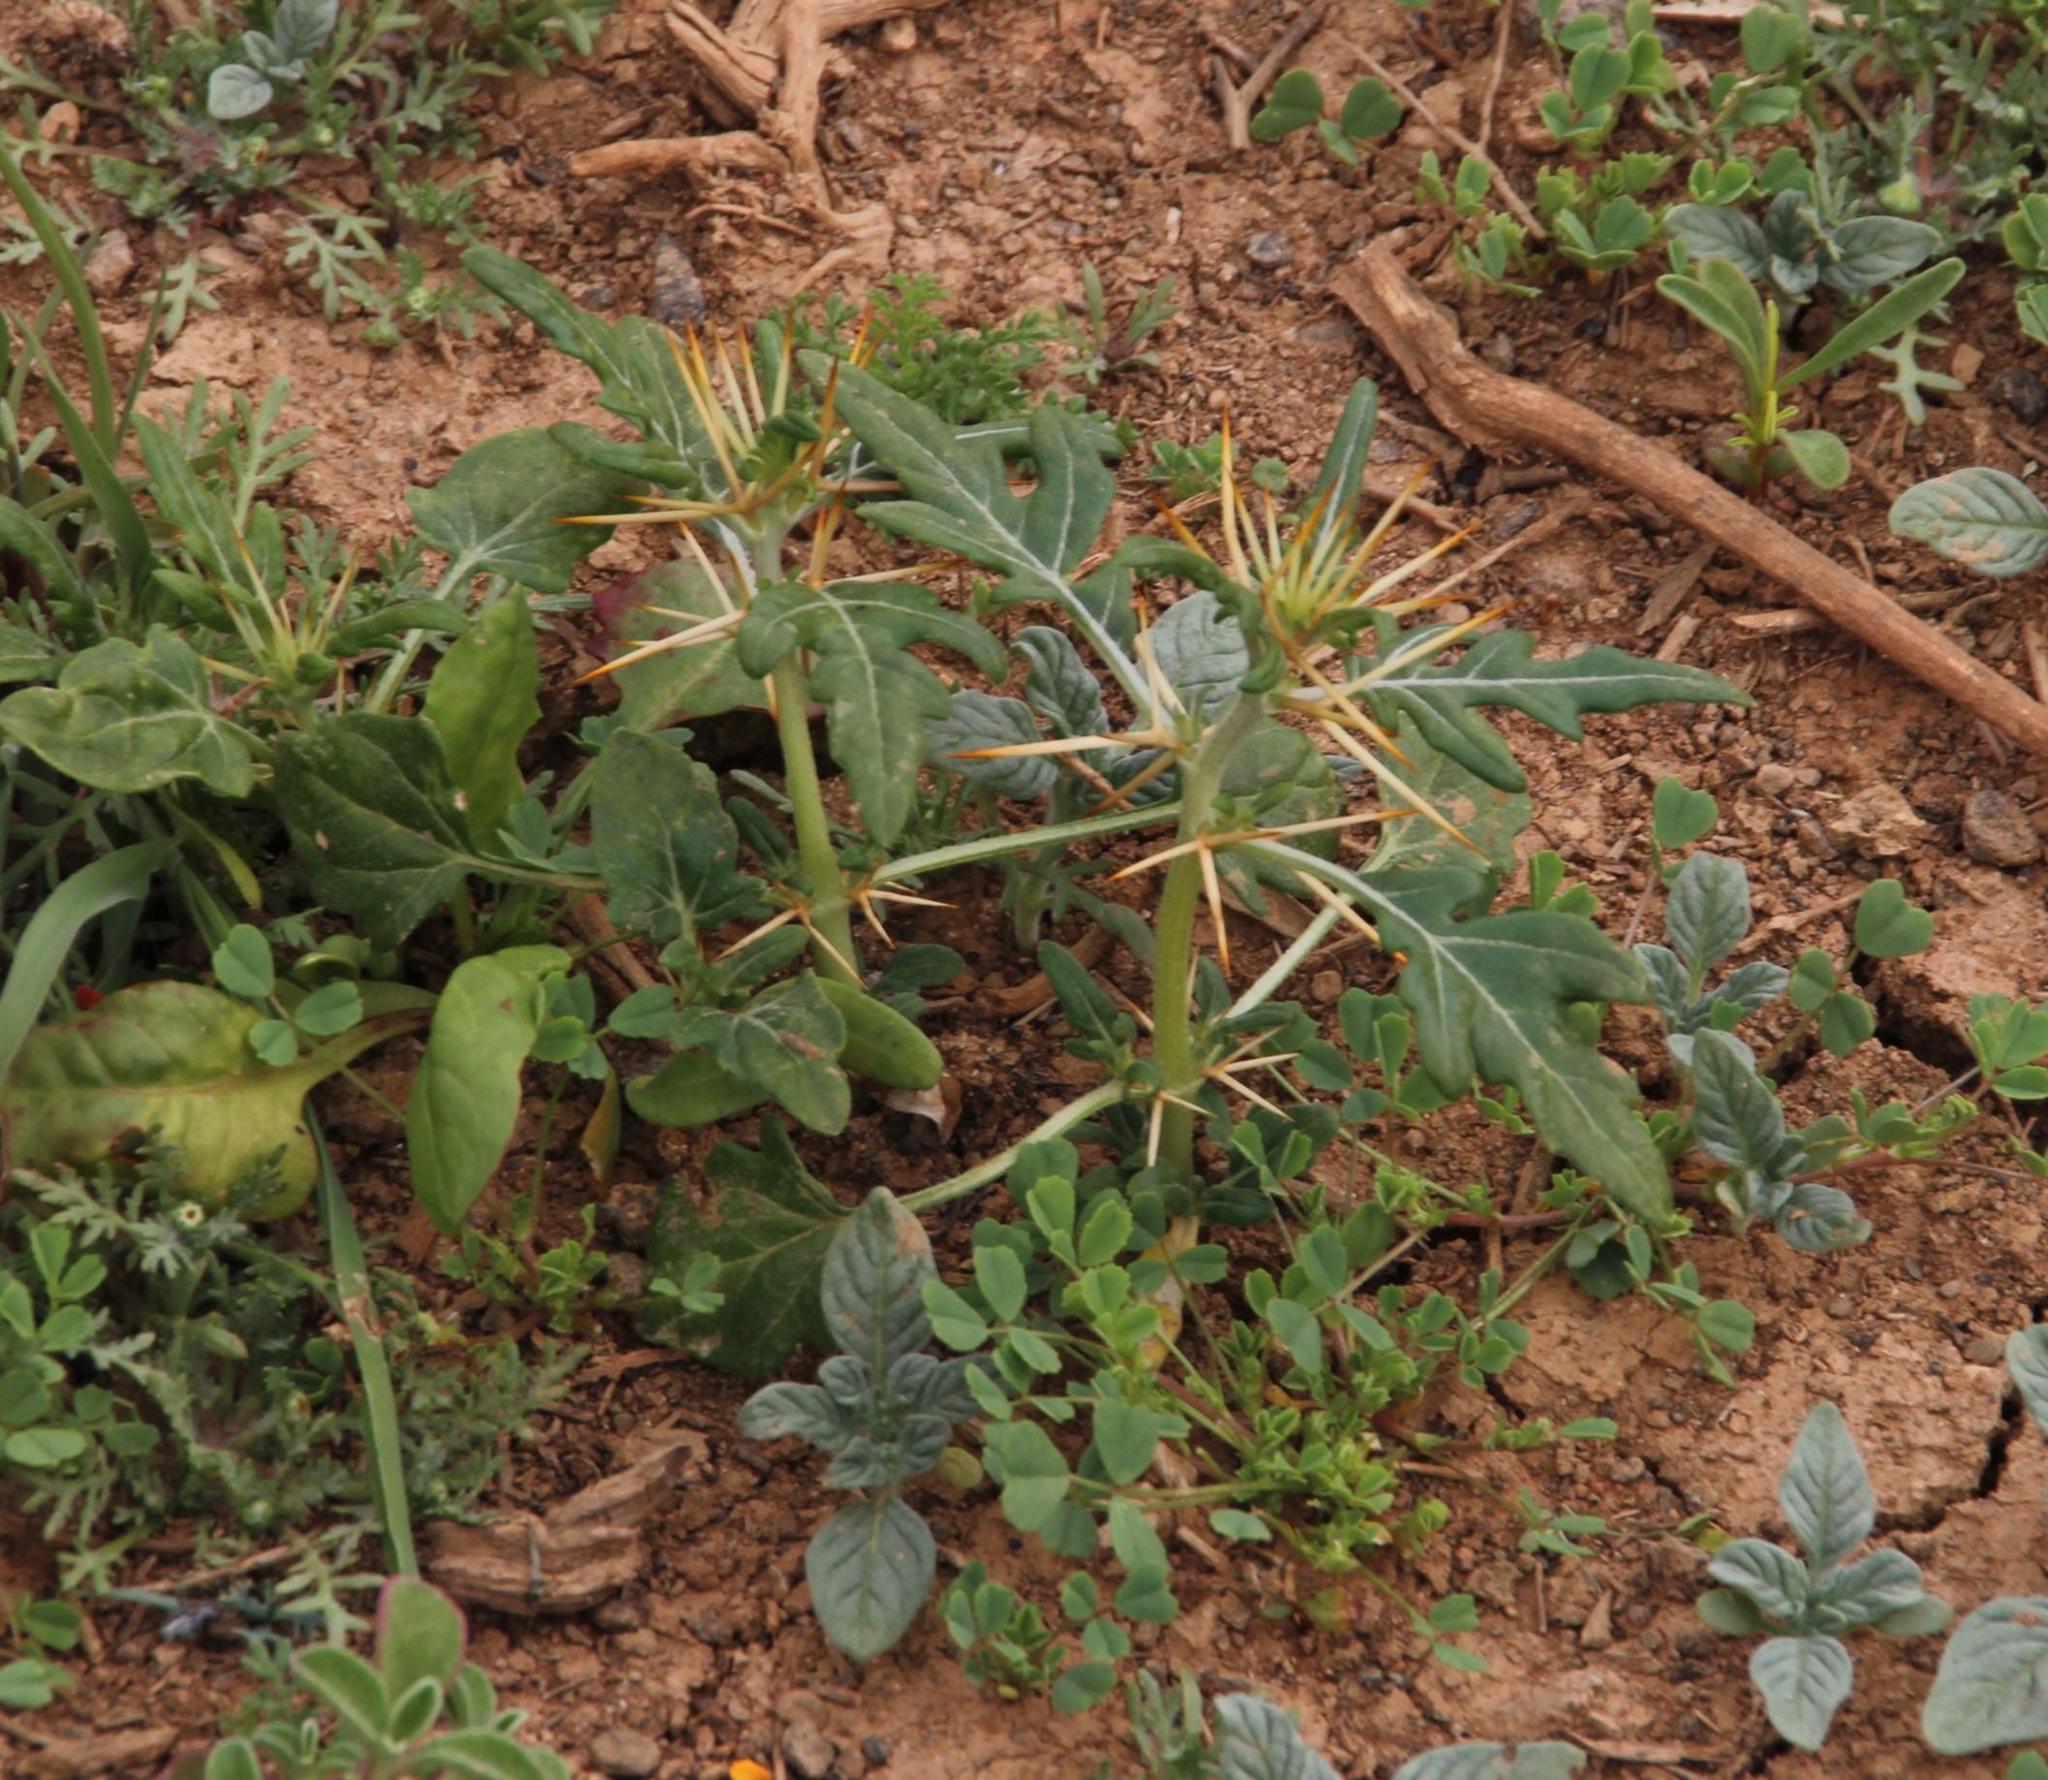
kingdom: Plantae
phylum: Tracheophyta
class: Magnoliopsida
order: Asterales
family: Asteraceae
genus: Xanthium
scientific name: Xanthium spinosum
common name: Spiny cocklebur
